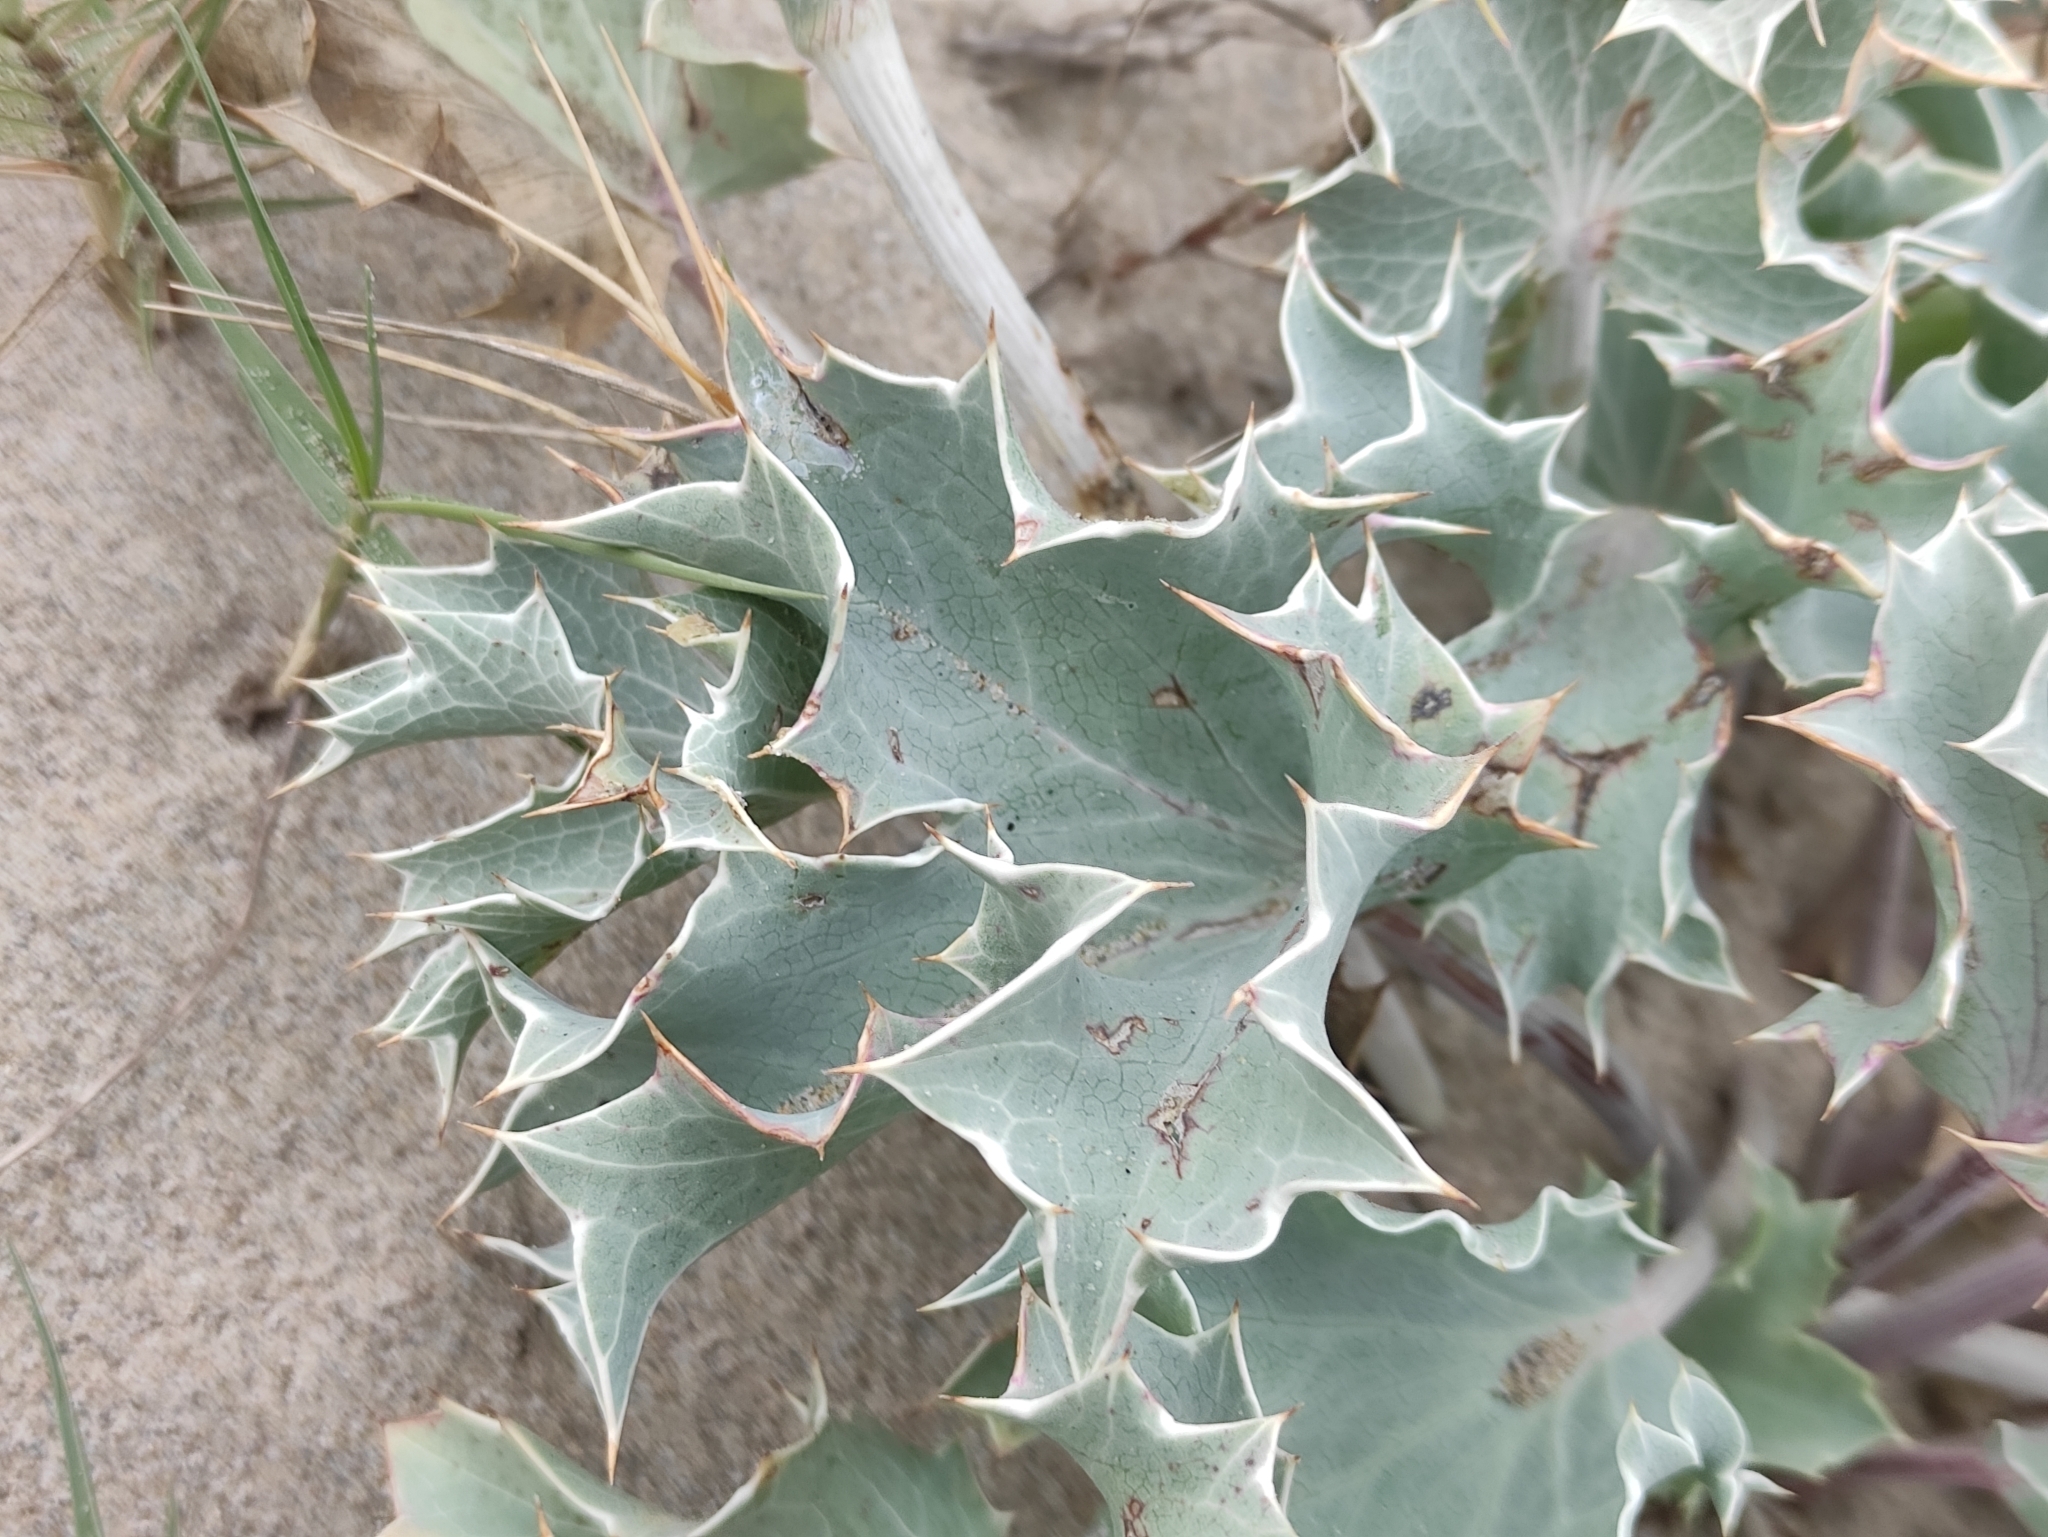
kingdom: Plantae
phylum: Tracheophyta
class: Magnoliopsida
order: Apiales
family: Apiaceae
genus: Eryngium
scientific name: Eryngium maritimum
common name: Sea-holly
